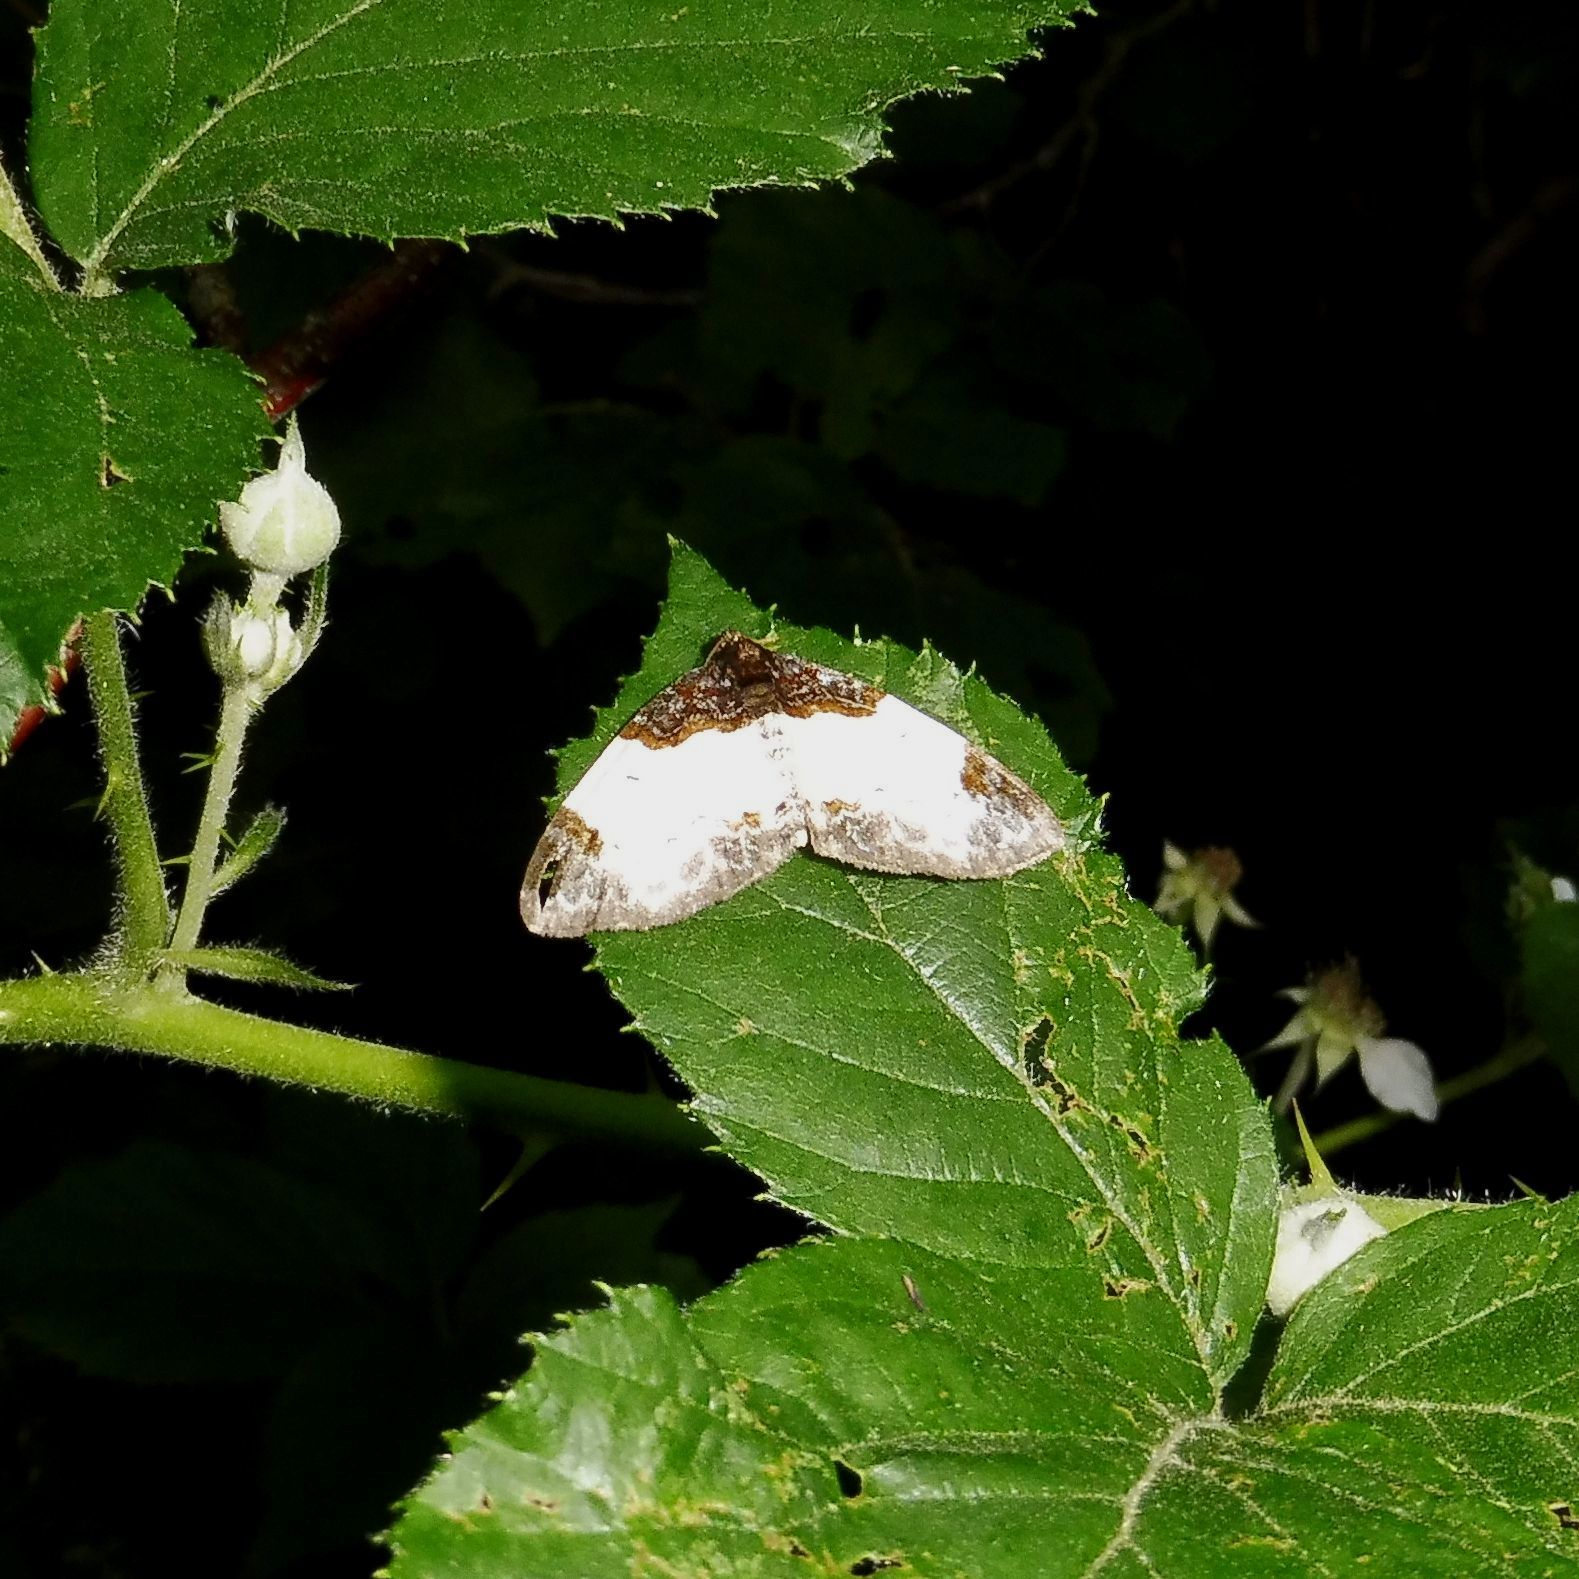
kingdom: Animalia
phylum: Arthropoda
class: Insecta
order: Lepidoptera
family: Geometridae
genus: Mesoleuca
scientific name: Mesoleuca albicillata
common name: Beautiful carpet
